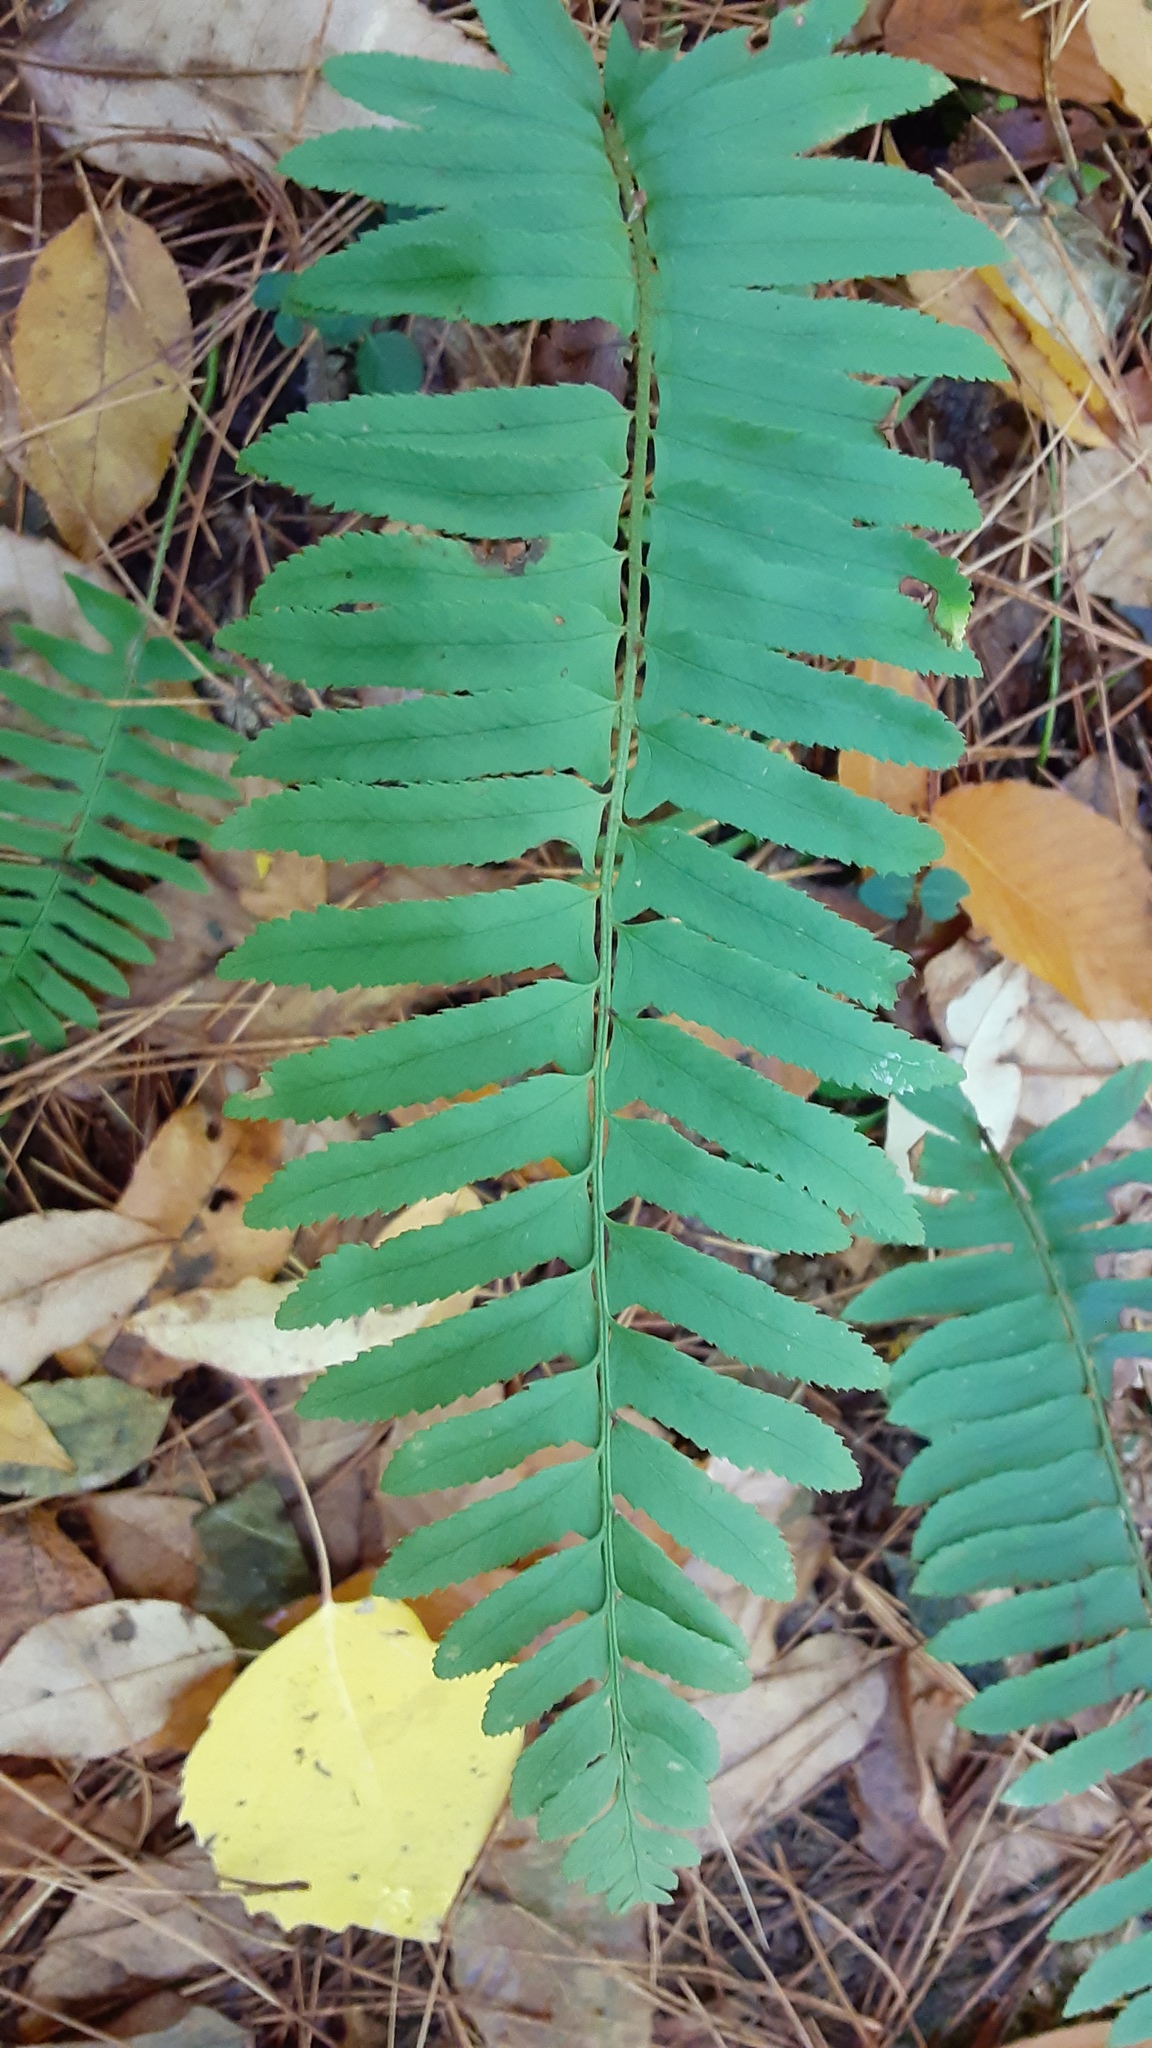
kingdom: Plantae
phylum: Tracheophyta
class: Polypodiopsida
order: Polypodiales
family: Dryopteridaceae
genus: Polystichum
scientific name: Polystichum acrostichoides
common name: Christmas fern
